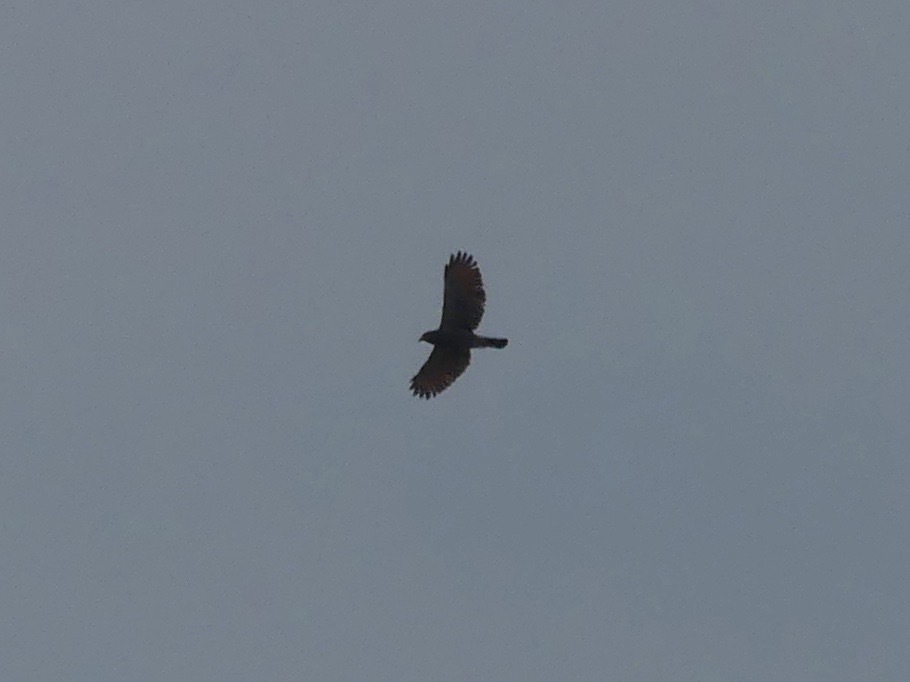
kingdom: Animalia
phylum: Chordata
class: Aves
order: Accipitriformes
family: Accipitridae
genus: Rupornis
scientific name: Rupornis magnirostris
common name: Roadside hawk
